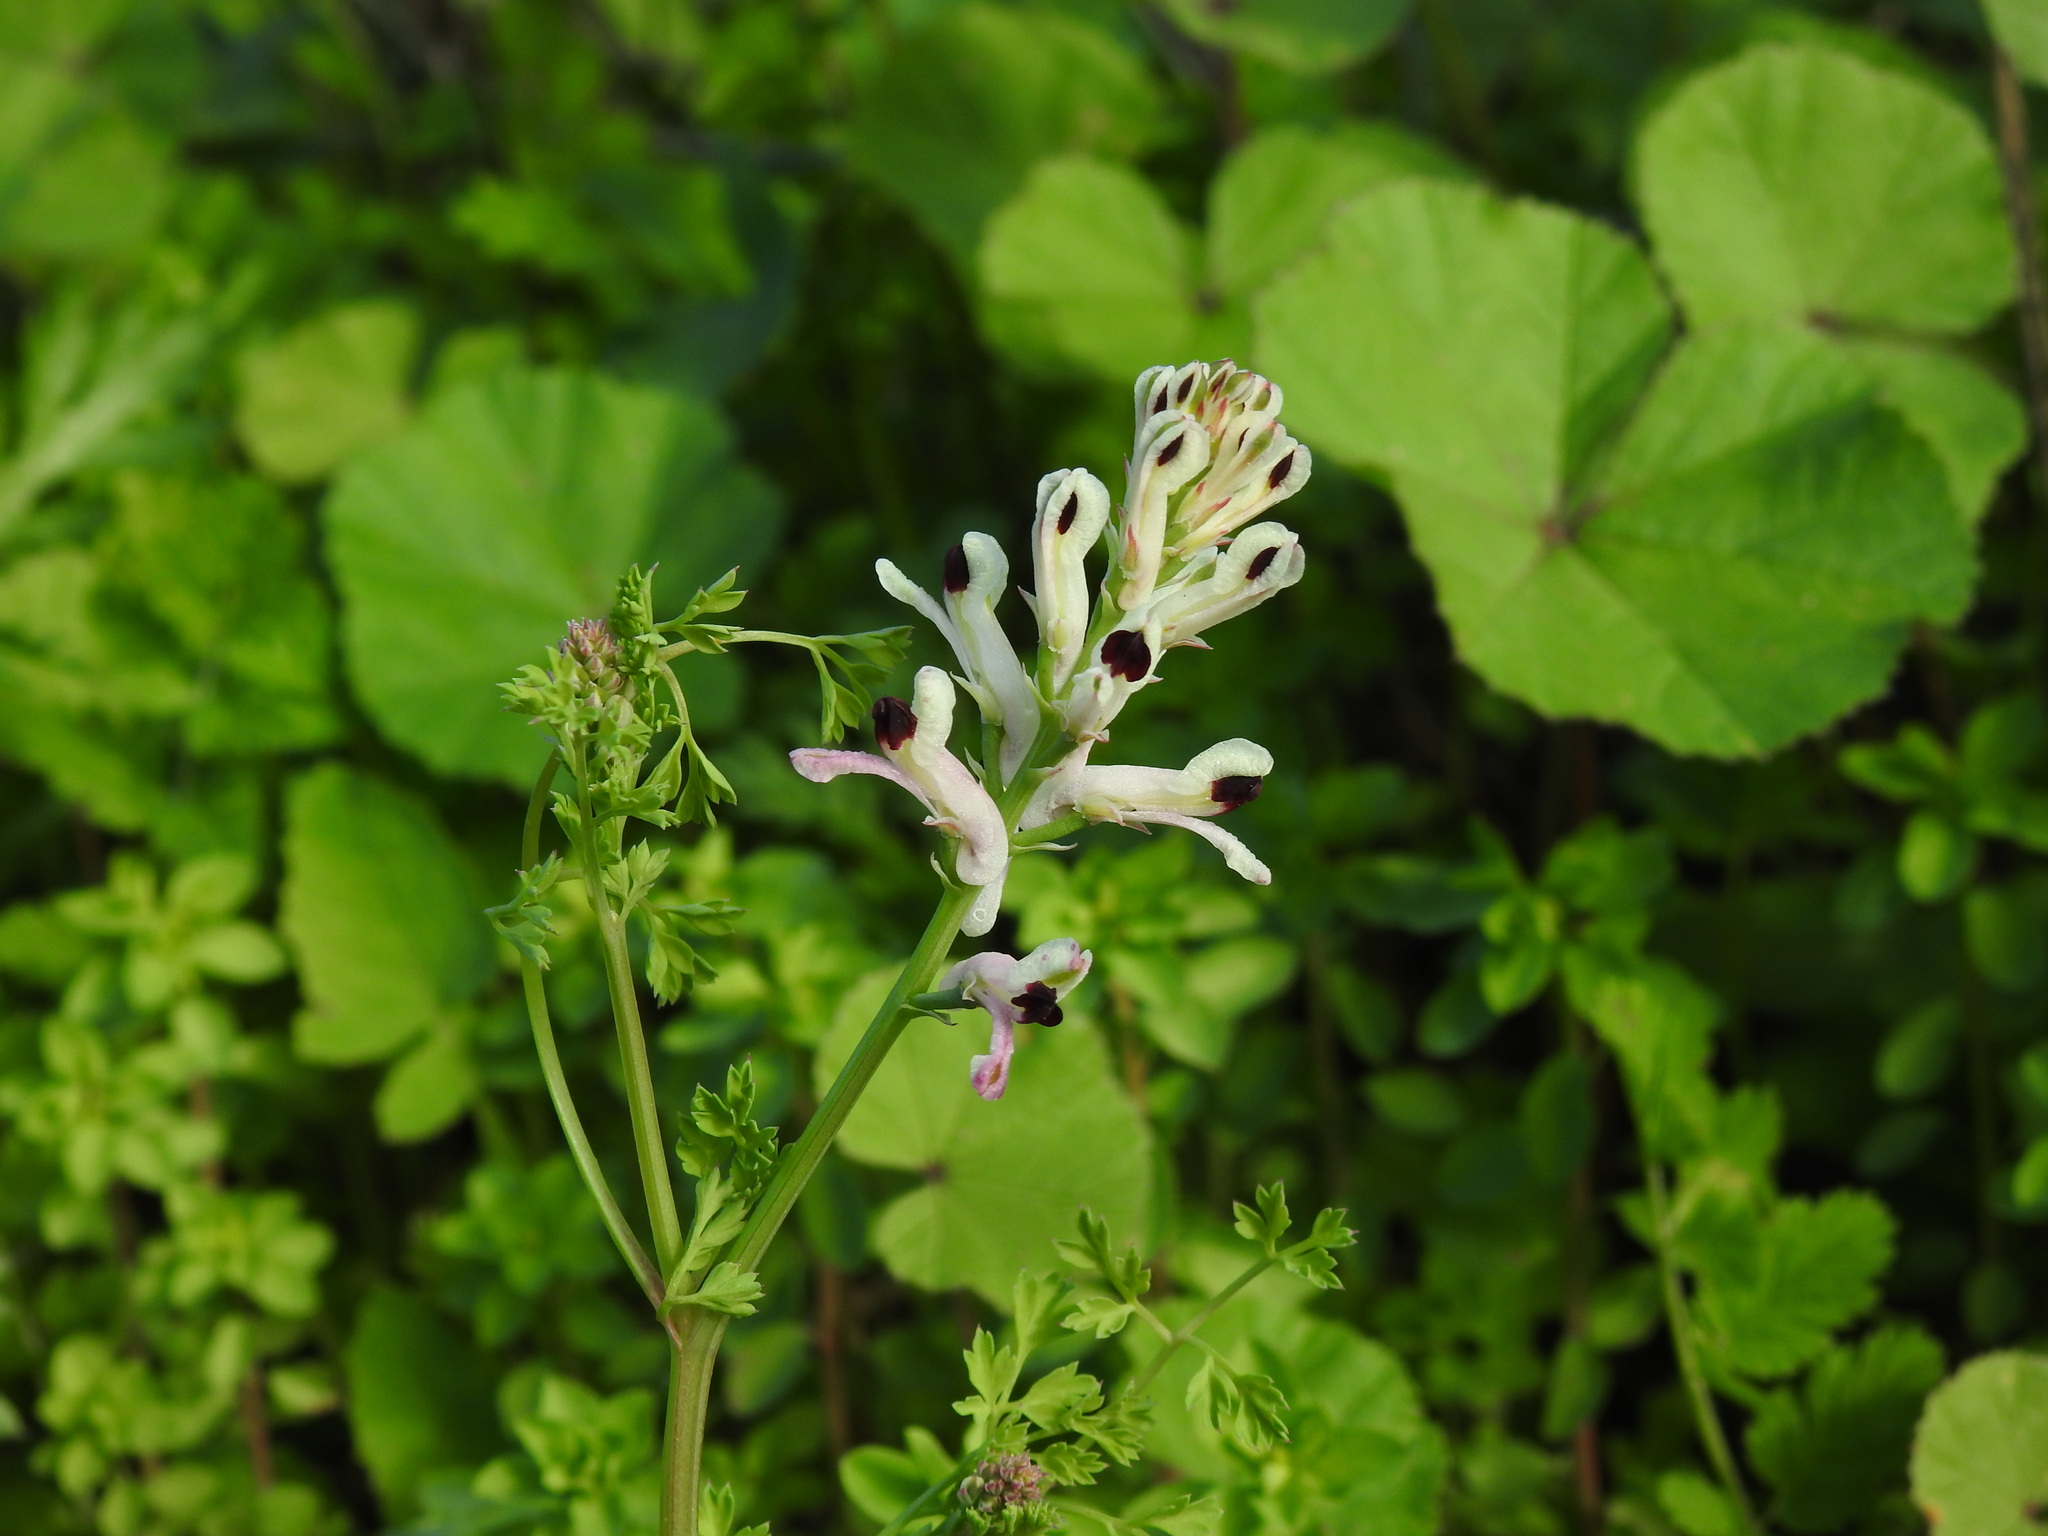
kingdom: Plantae
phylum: Tracheophyta
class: Magnoliopsida
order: Ranunculales
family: Papaveraceae
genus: Fumaria
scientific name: Fumaria agraria
